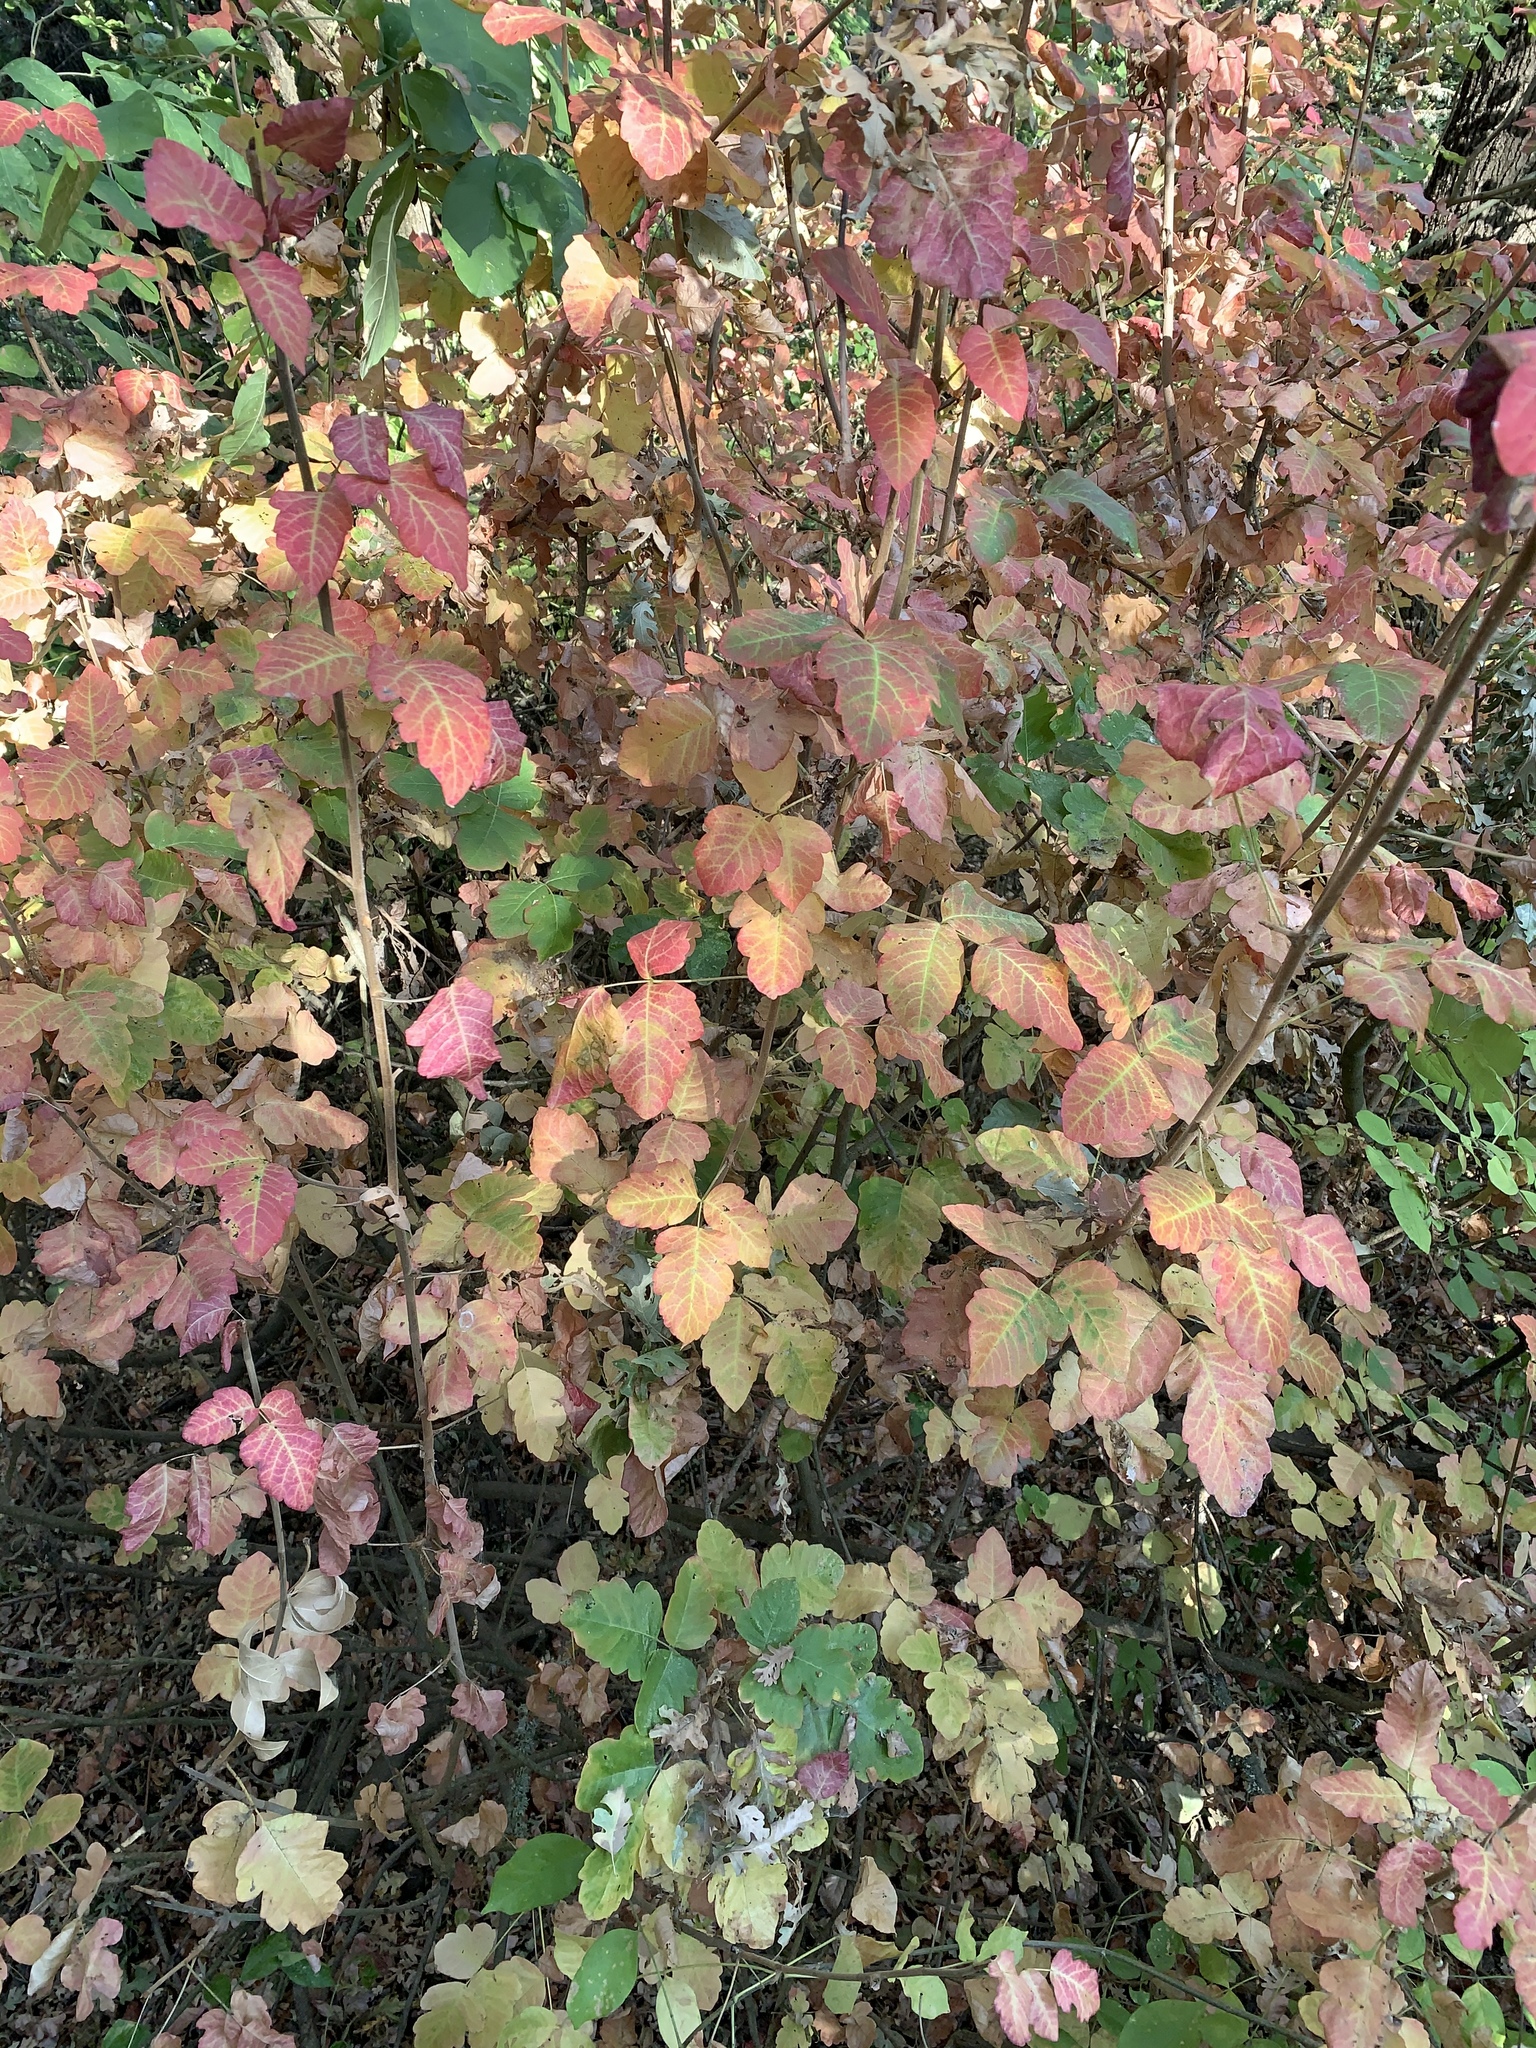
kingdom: Plantae
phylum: Tracheophyta
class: Magnoliopsida
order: Sapindales
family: Anacardiaceae
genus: Toxicodendron
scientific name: Toxicodendron diversilobum
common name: Pacific poison-oak
